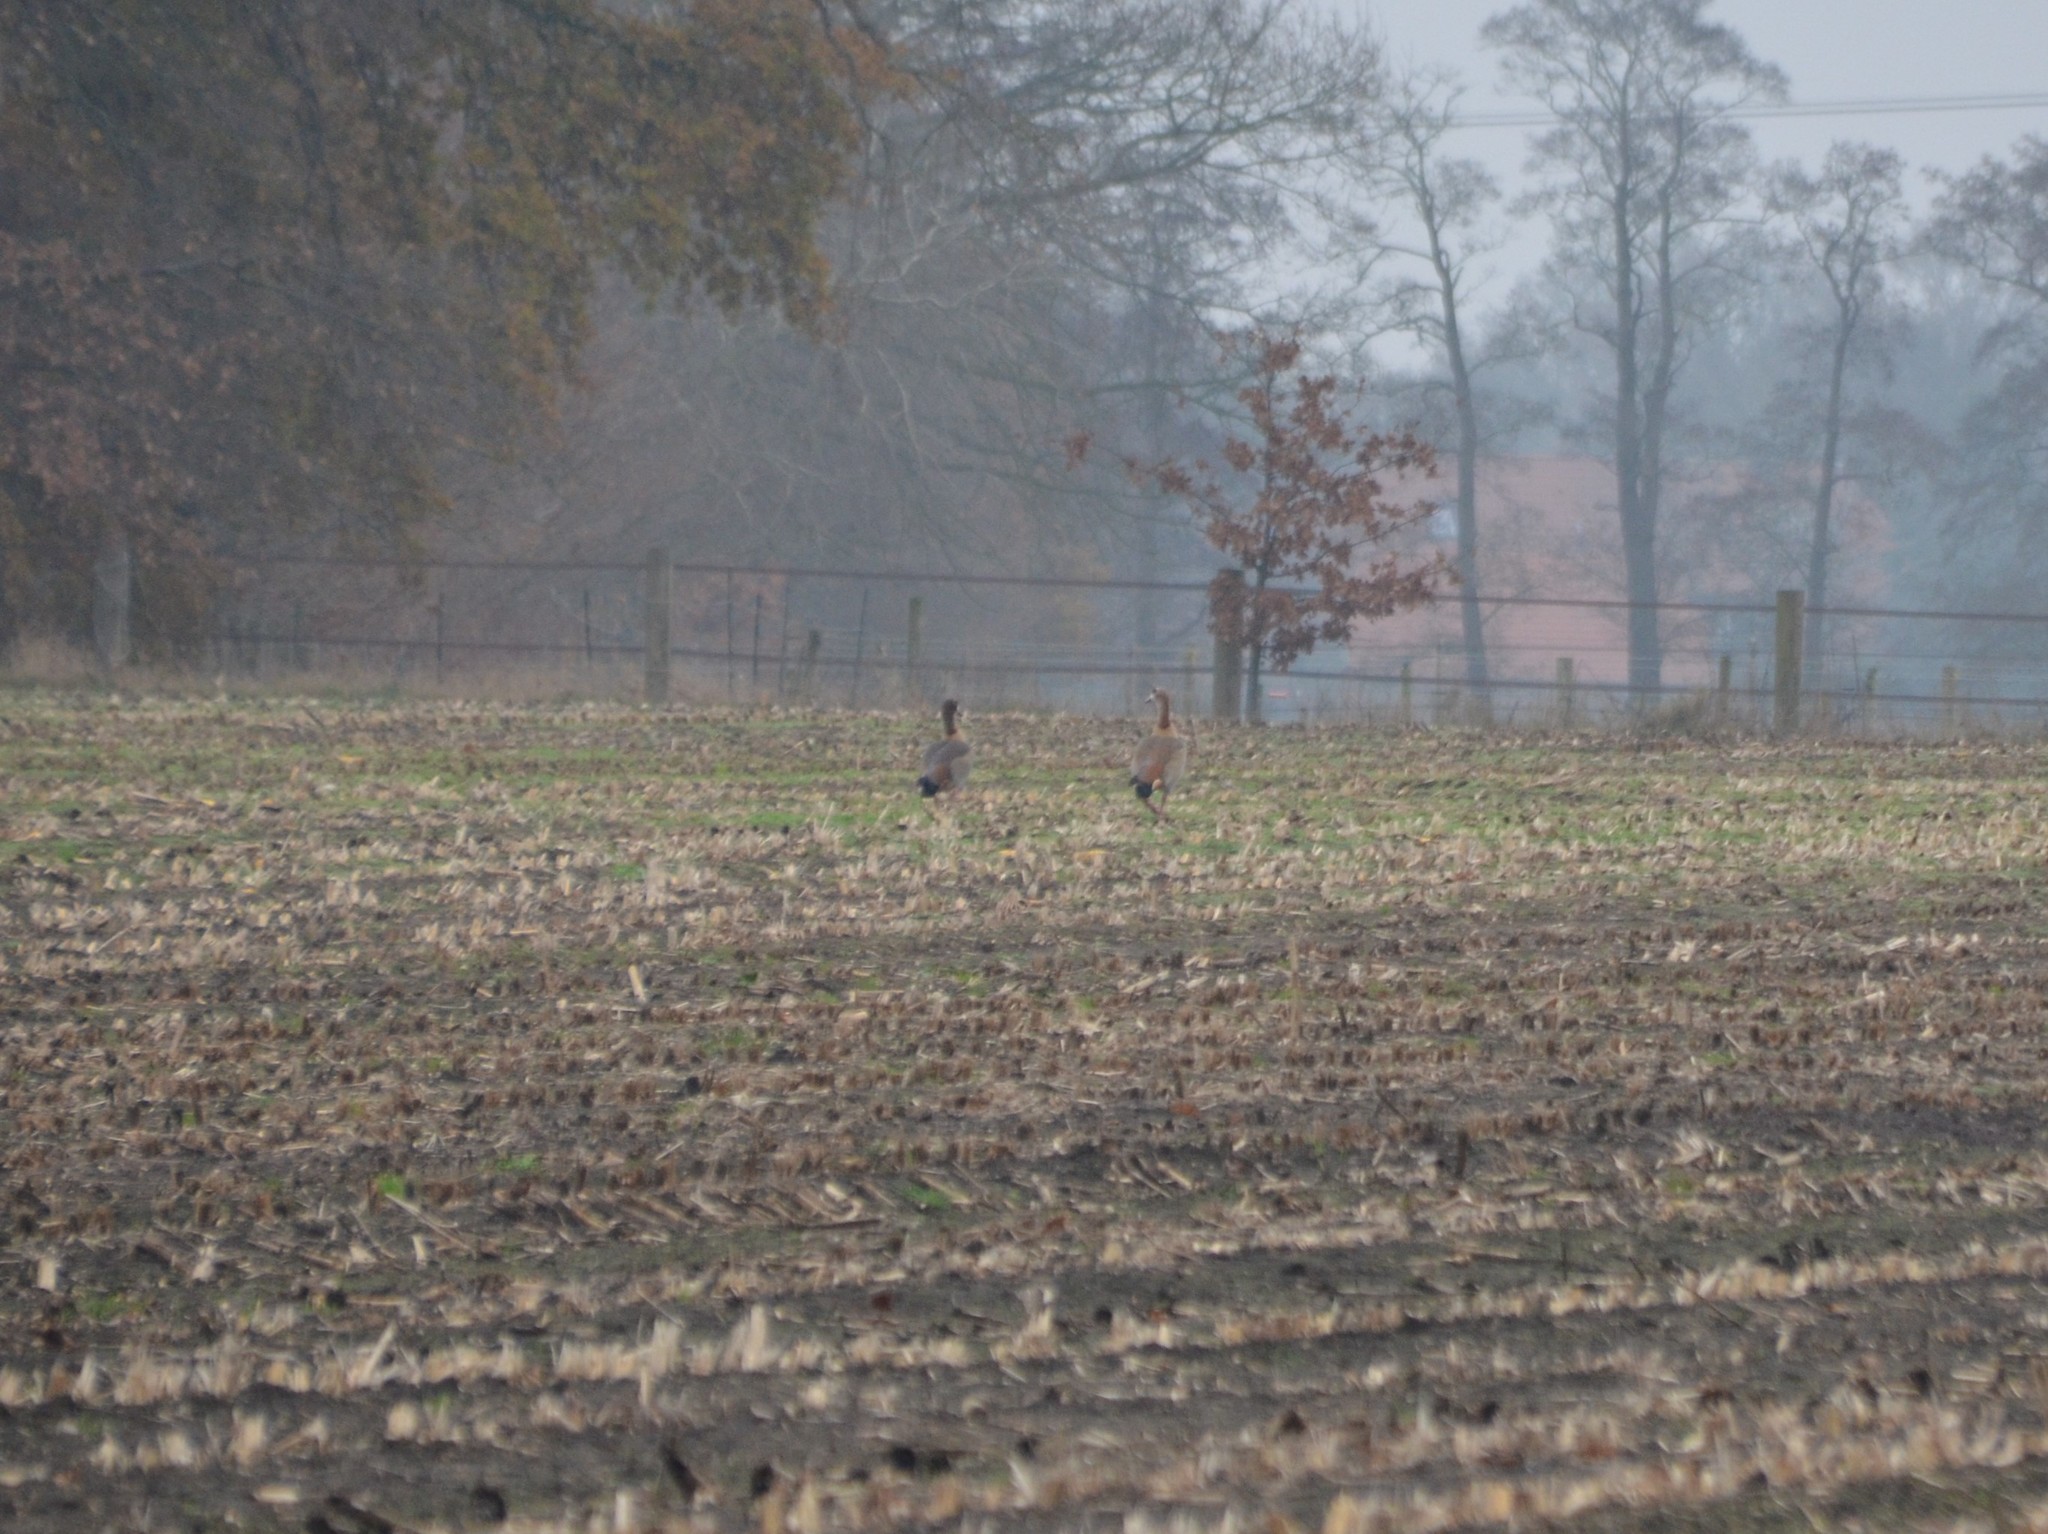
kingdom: Animalia
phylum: Chordata
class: Aves
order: Anseriformes
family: Anatidae
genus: Alopochen
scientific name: Alopochen aegyptiaca
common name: Egyptian goose
